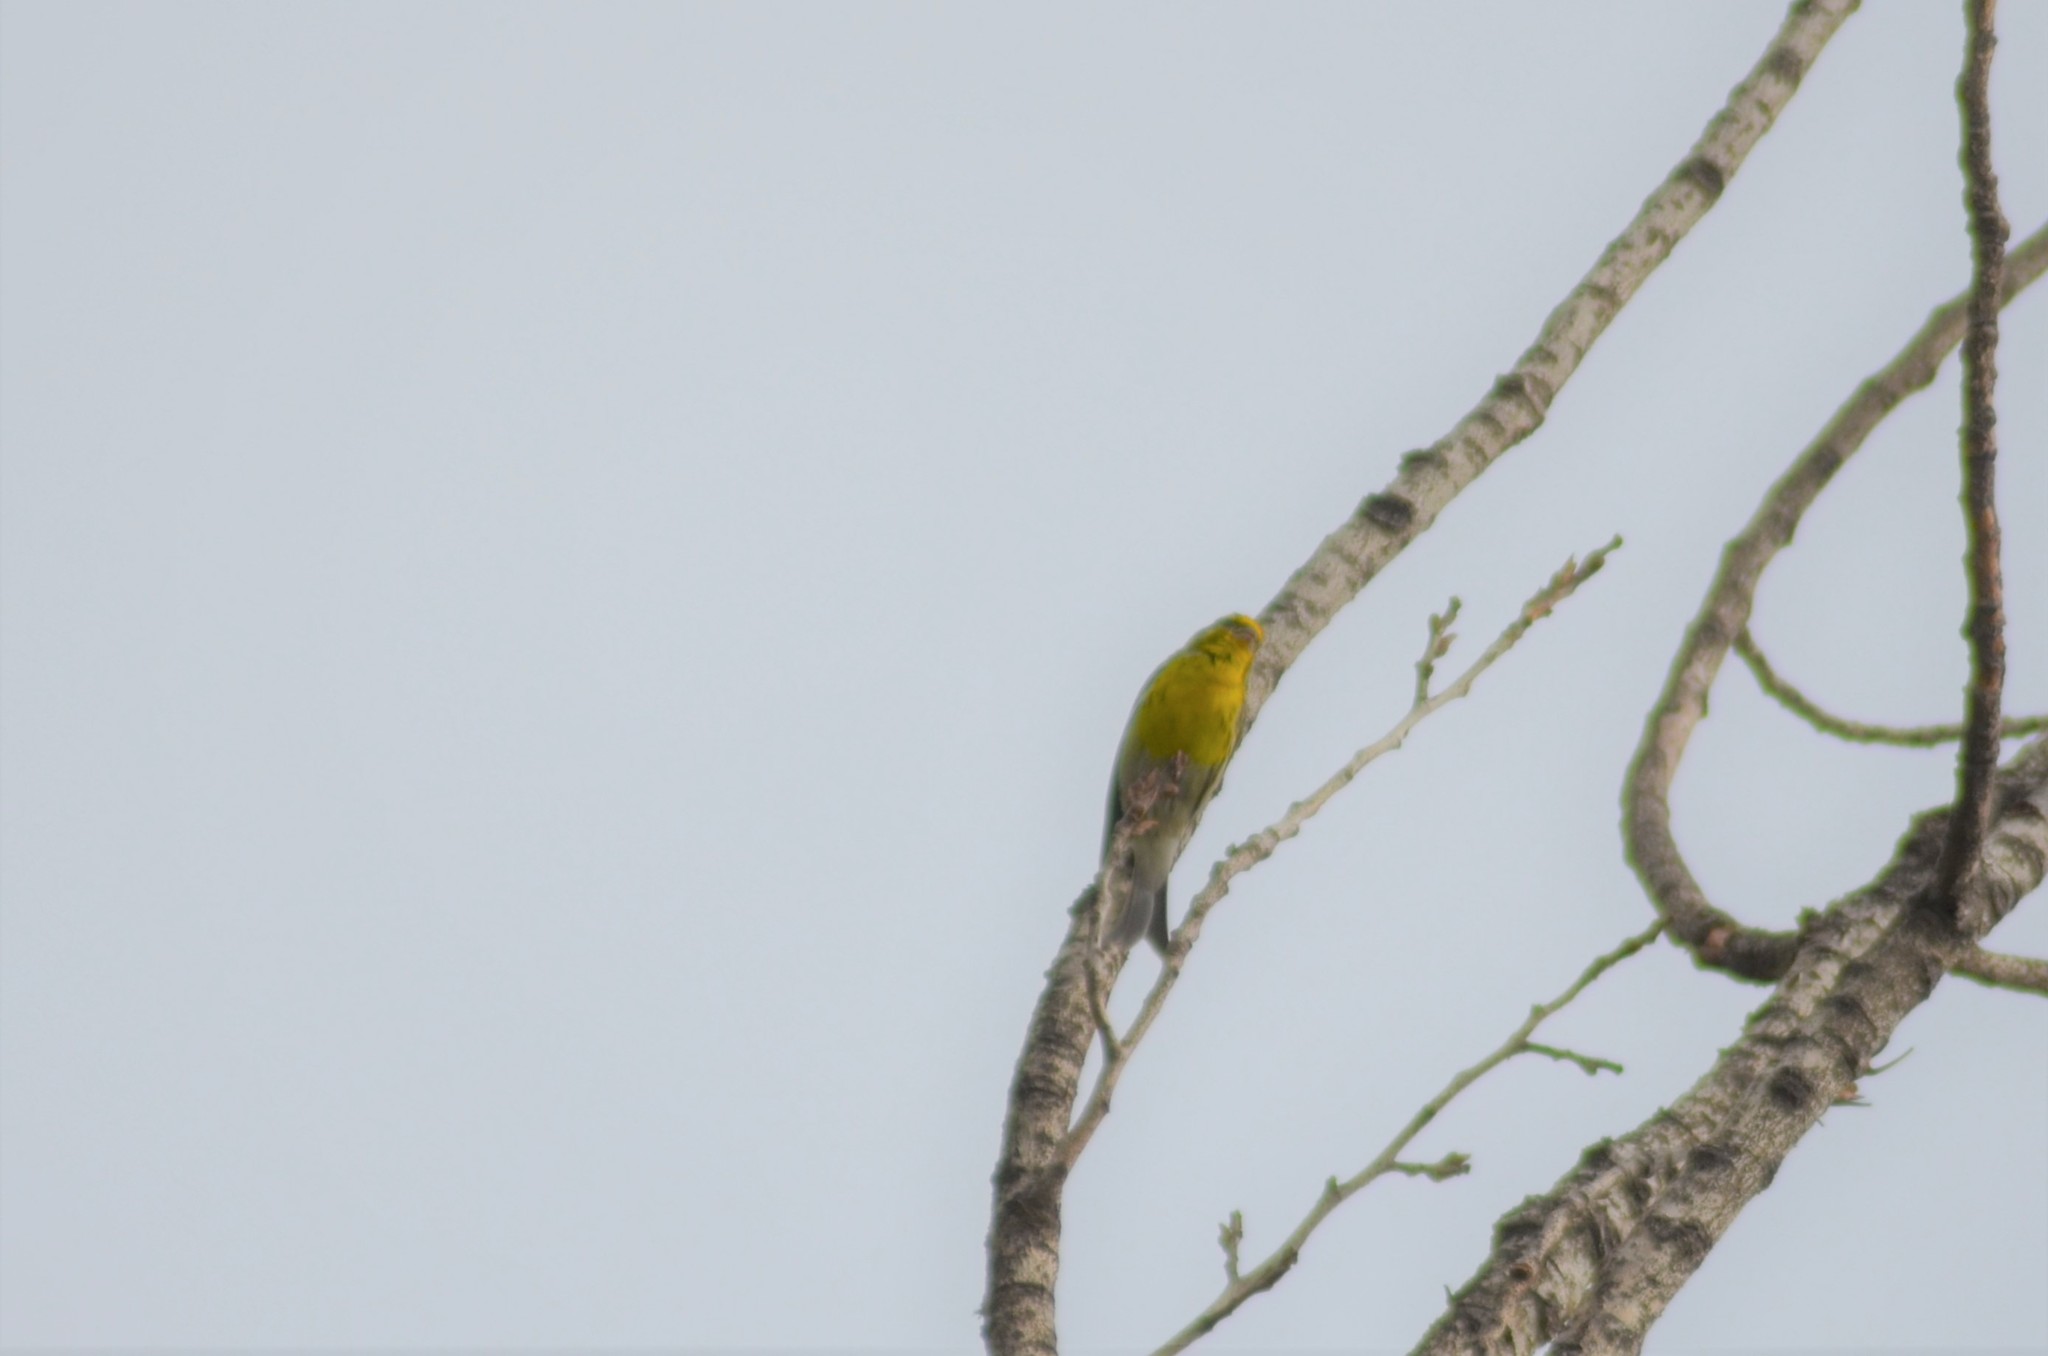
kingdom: Animalia
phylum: Chordata
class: Aves
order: Passeriformes
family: Fringillidae
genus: Serinus
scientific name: Serinus serinus
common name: European serin
